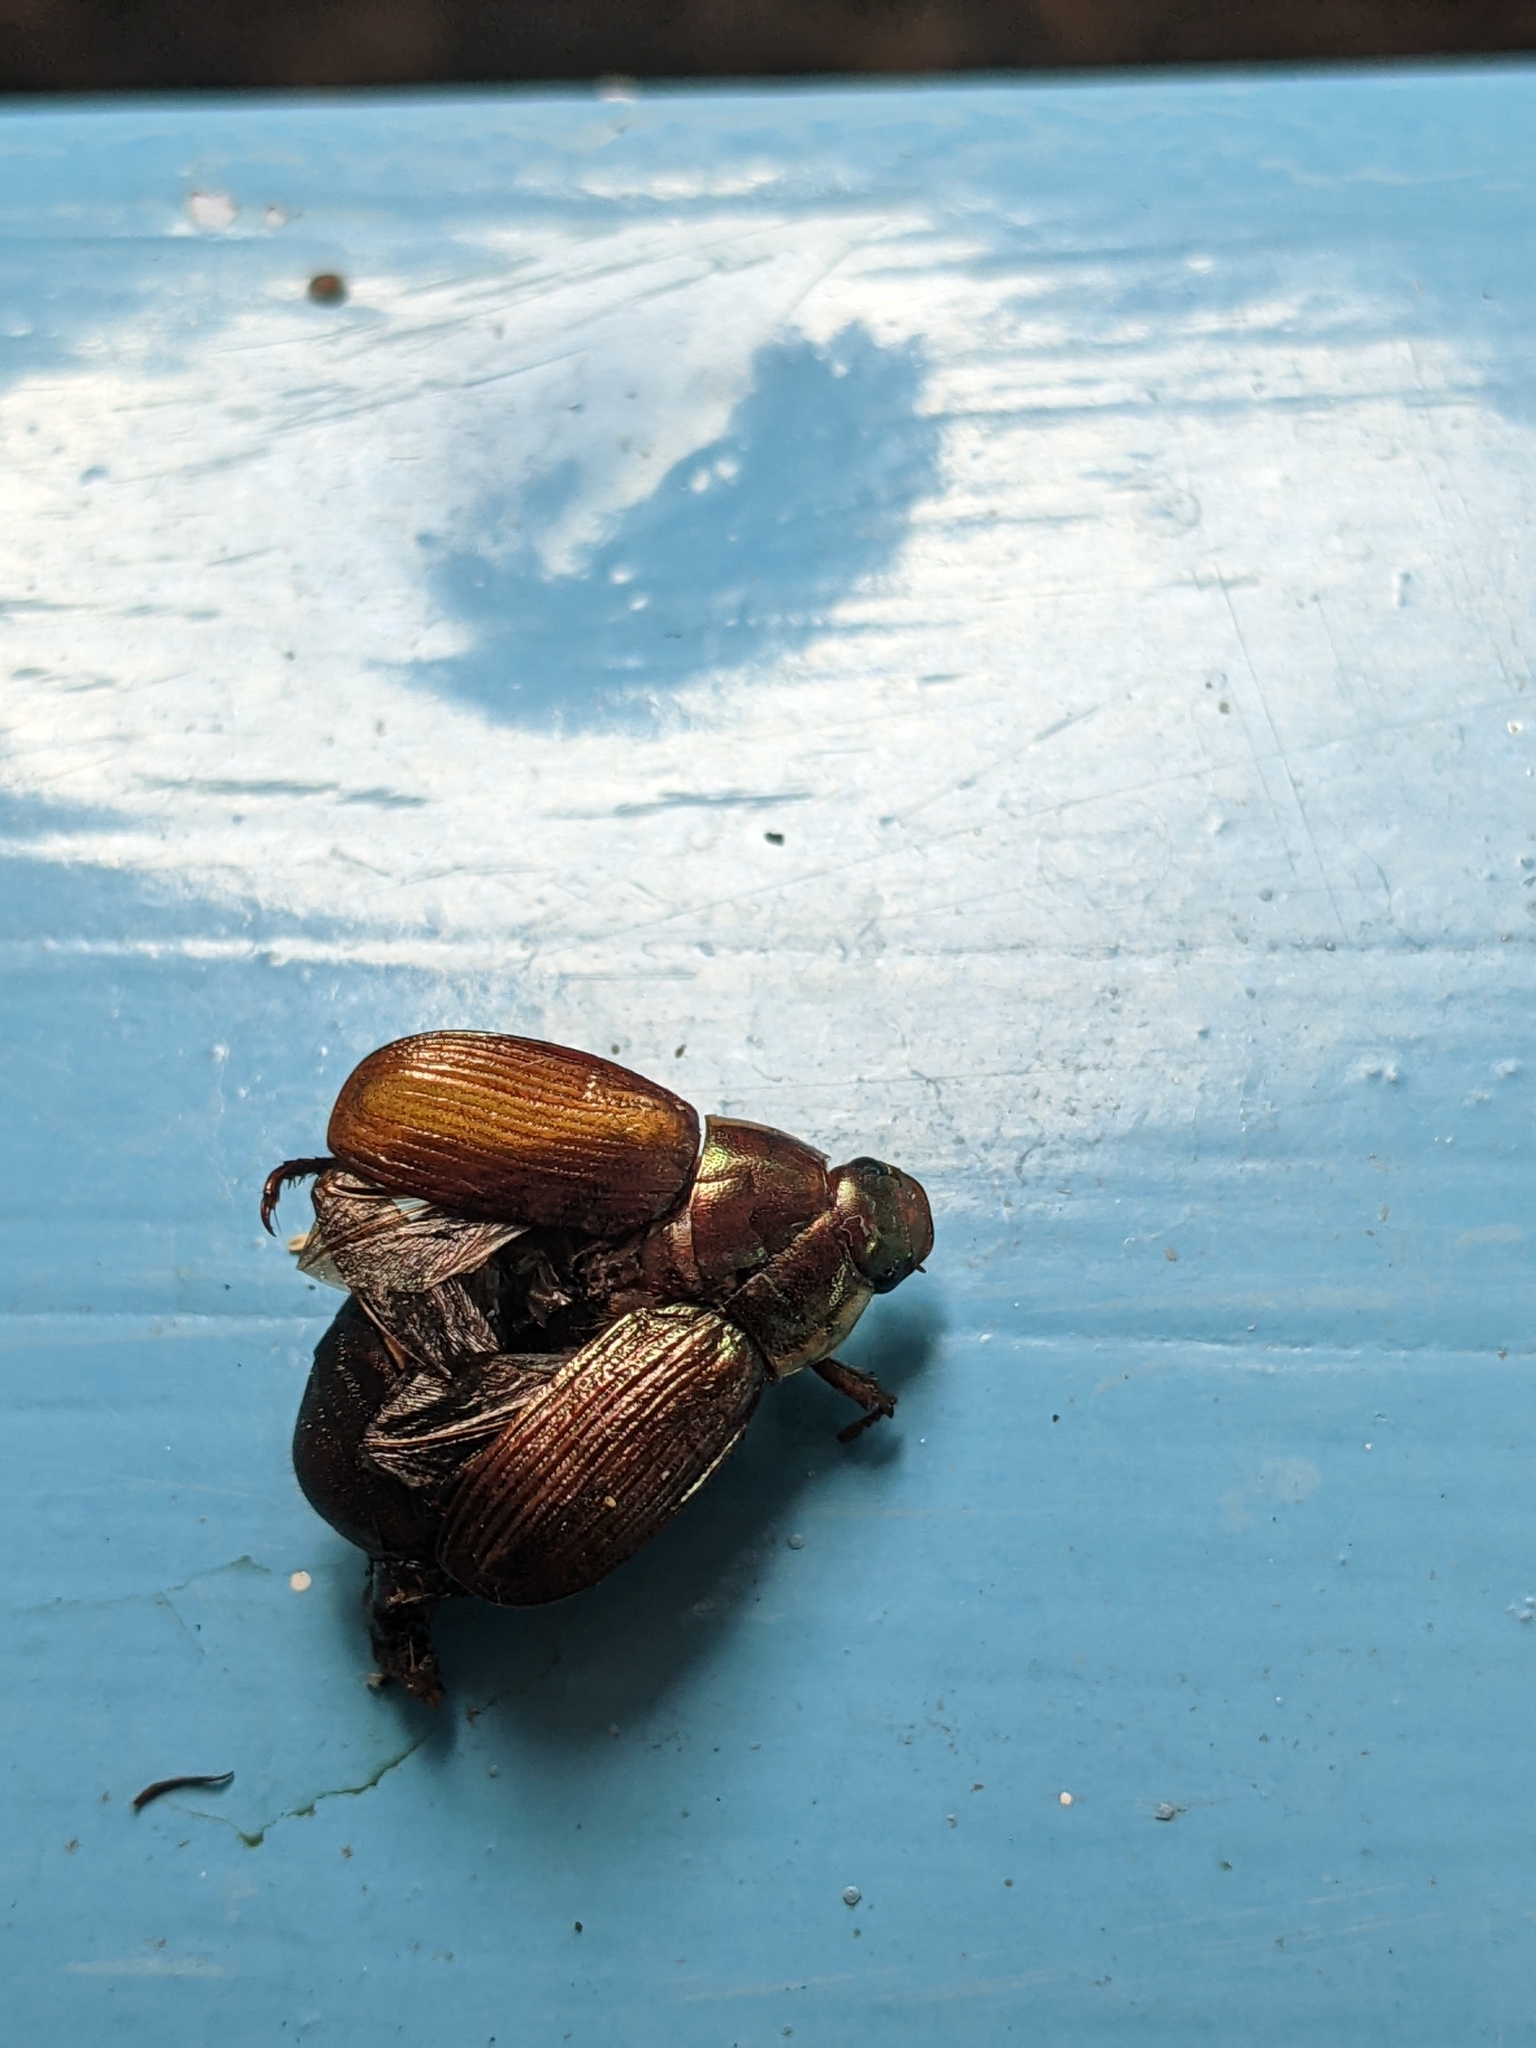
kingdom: Animalia
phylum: Arthropoda
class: Insecta
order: Coleoptera
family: Scarabaeidae
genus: Callistethus
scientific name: Callistethus marginatus
